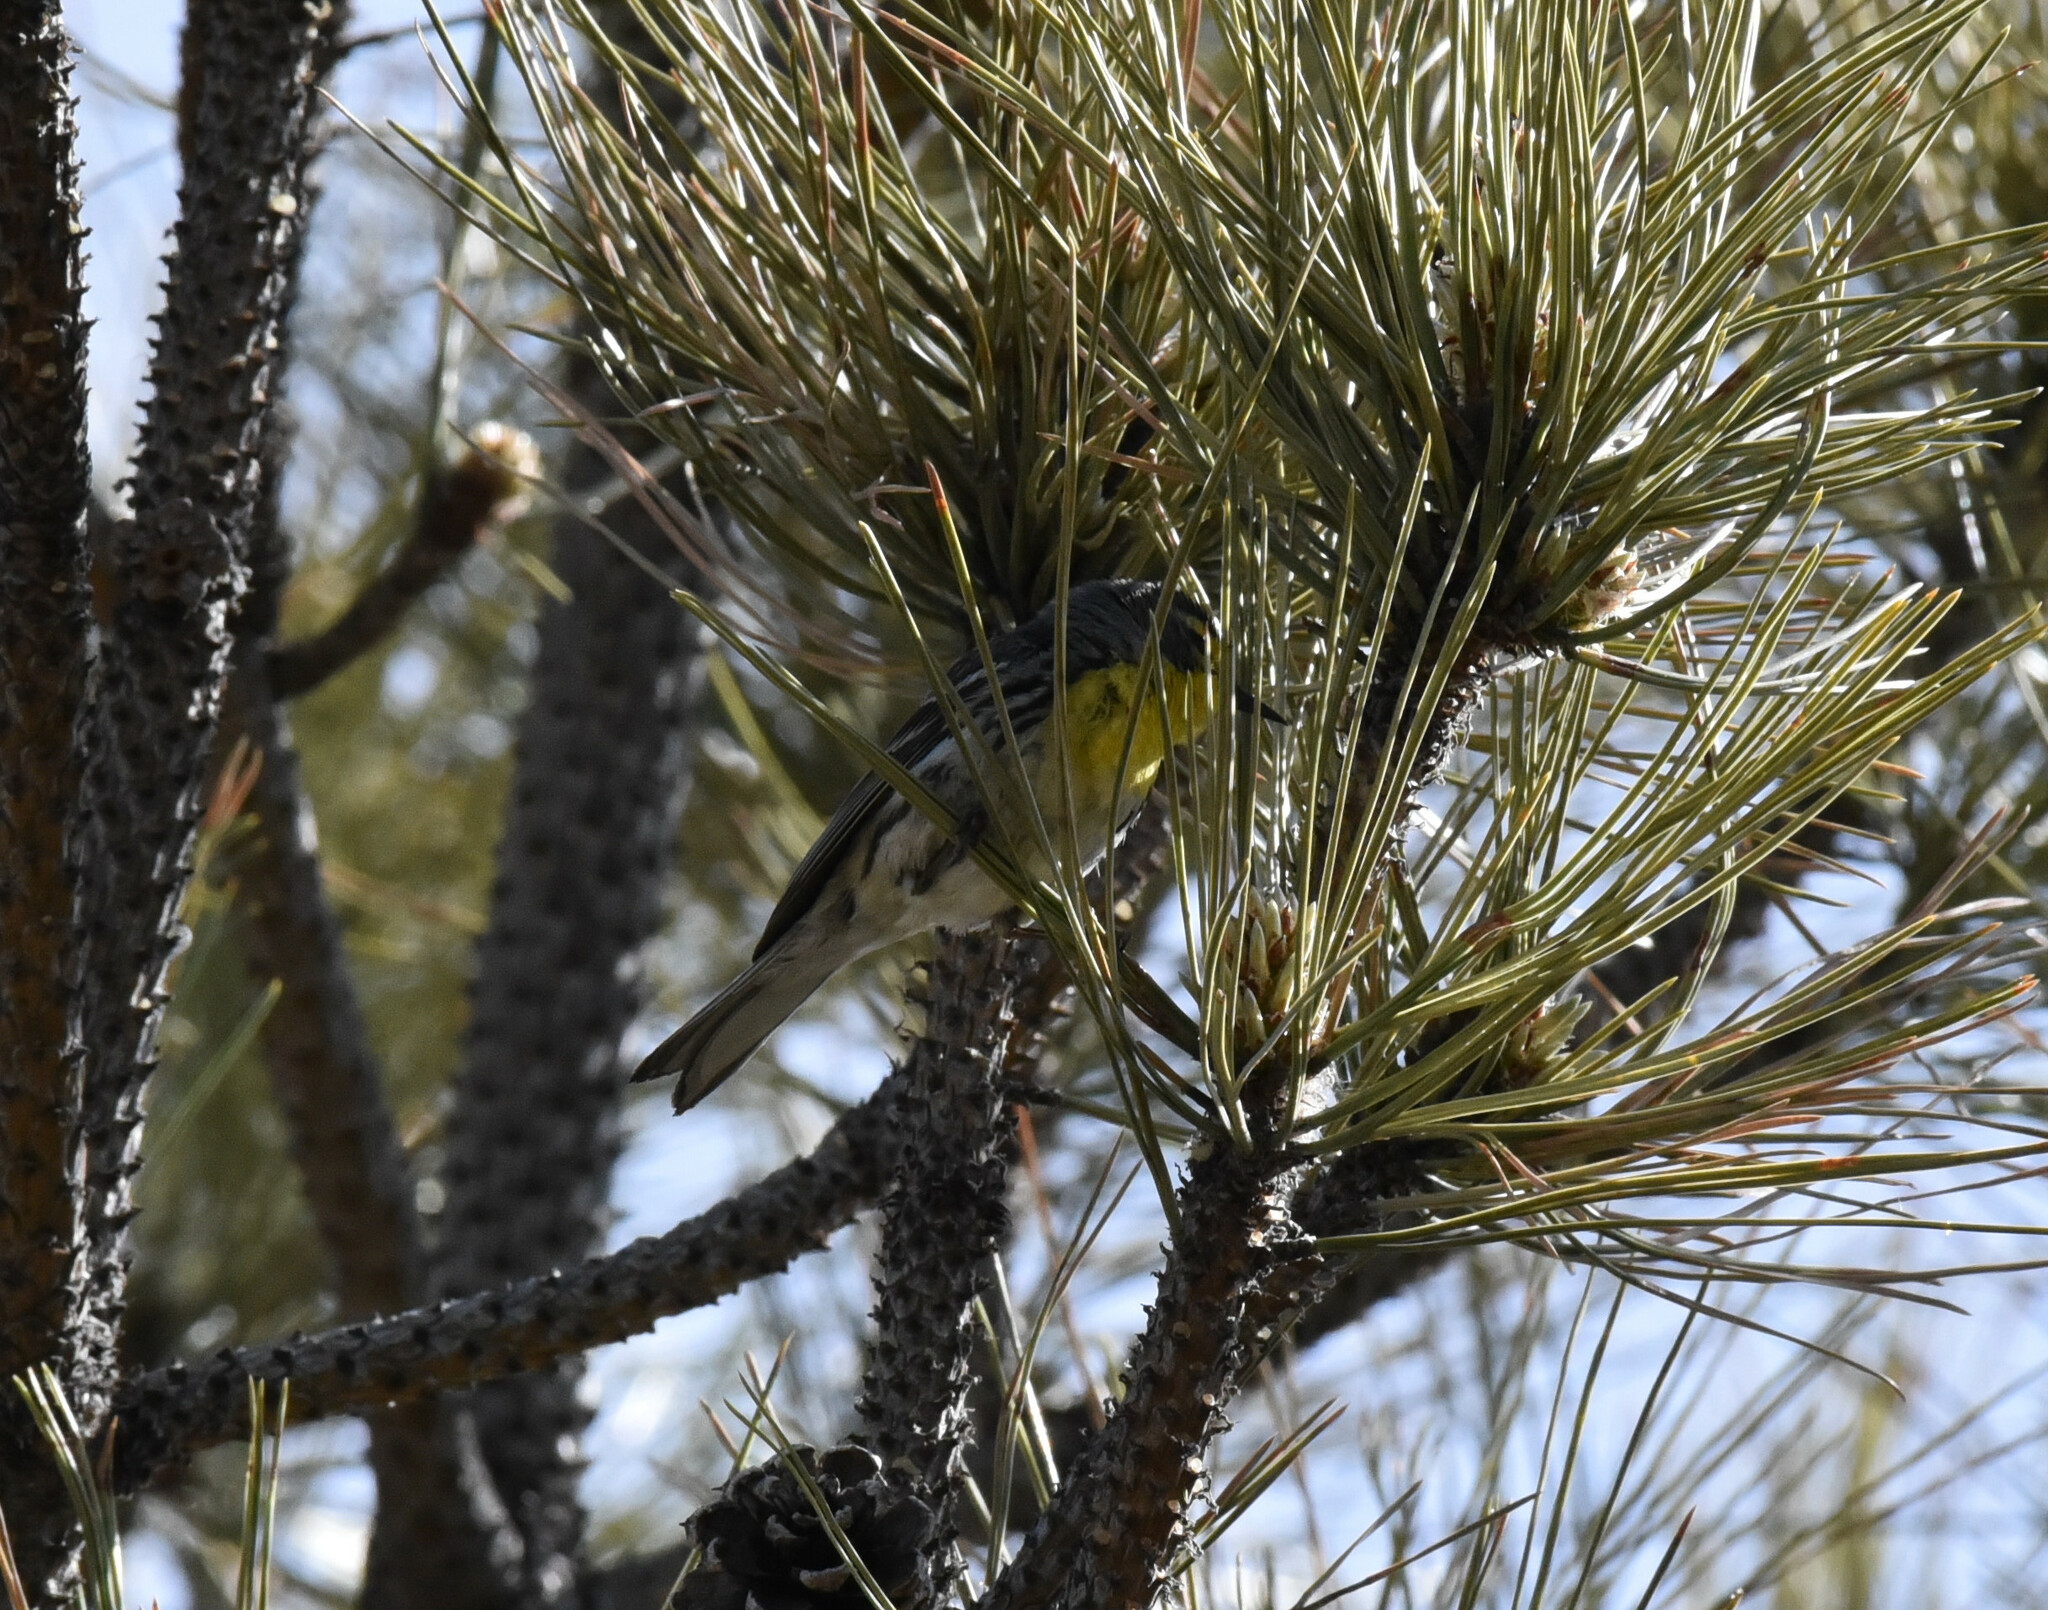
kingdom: Animalia
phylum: Chordata
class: Aves
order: Passeriformes
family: Parulidae
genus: Setophaga
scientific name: Setophaga graciae
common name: Grace's warbler
